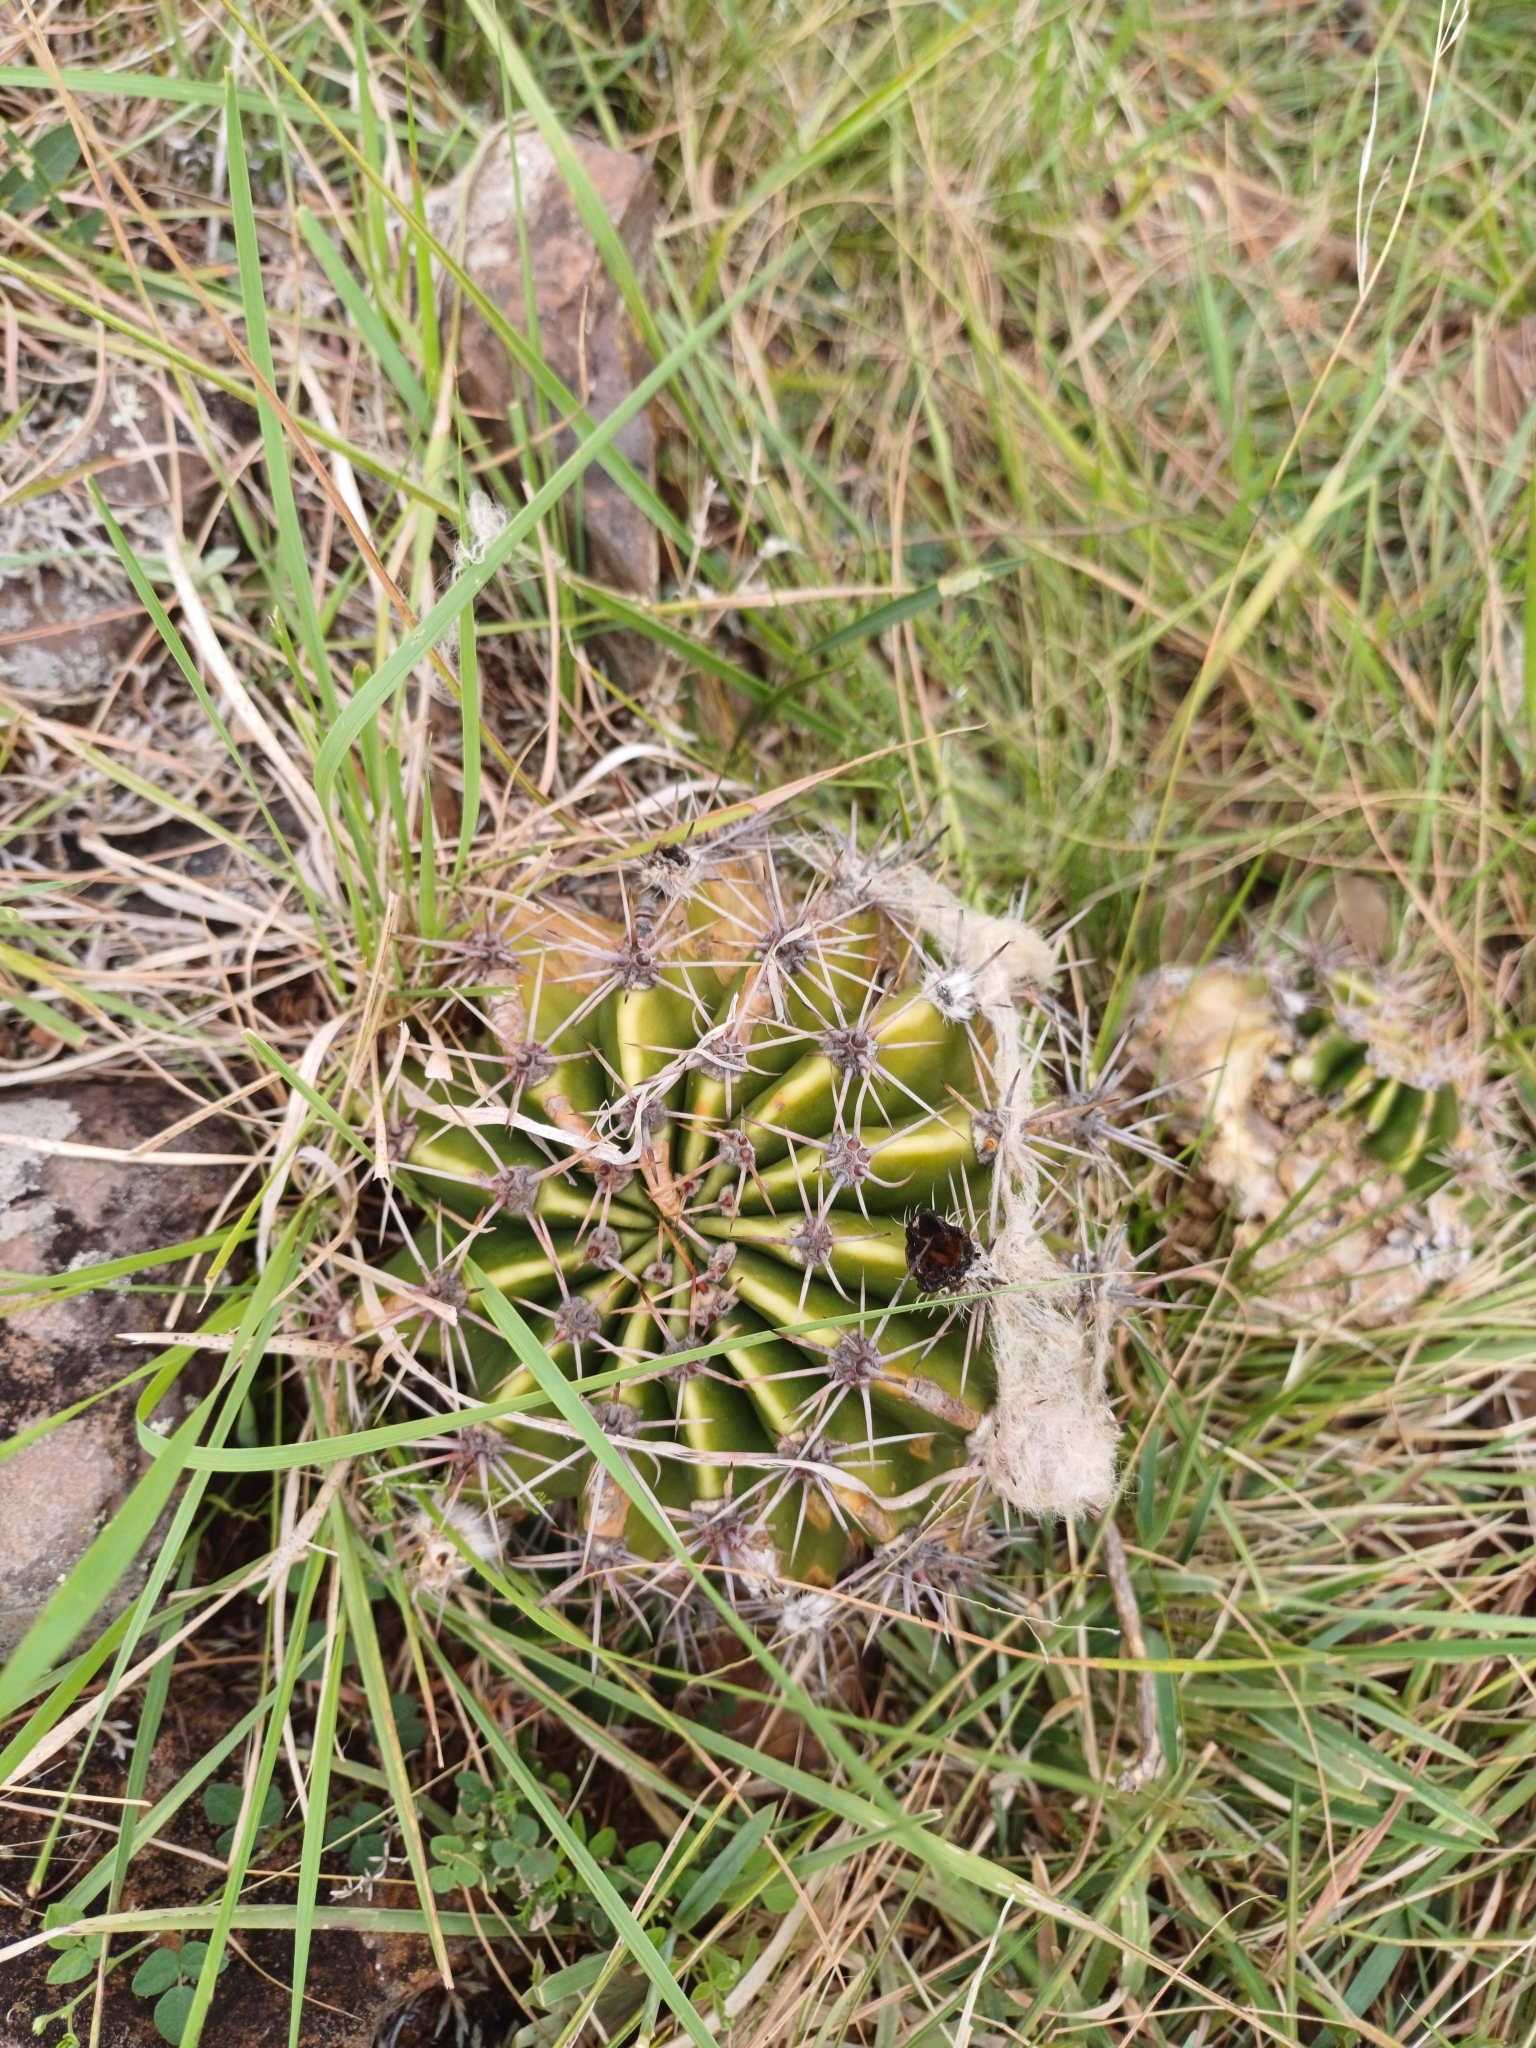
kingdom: Plantae
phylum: Tracheophyta
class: Magnoliopsida
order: Caryophyllales
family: Cactaceae
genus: Echinopsis
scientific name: Echinopsis oxygona
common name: Red easter-lily cactus
